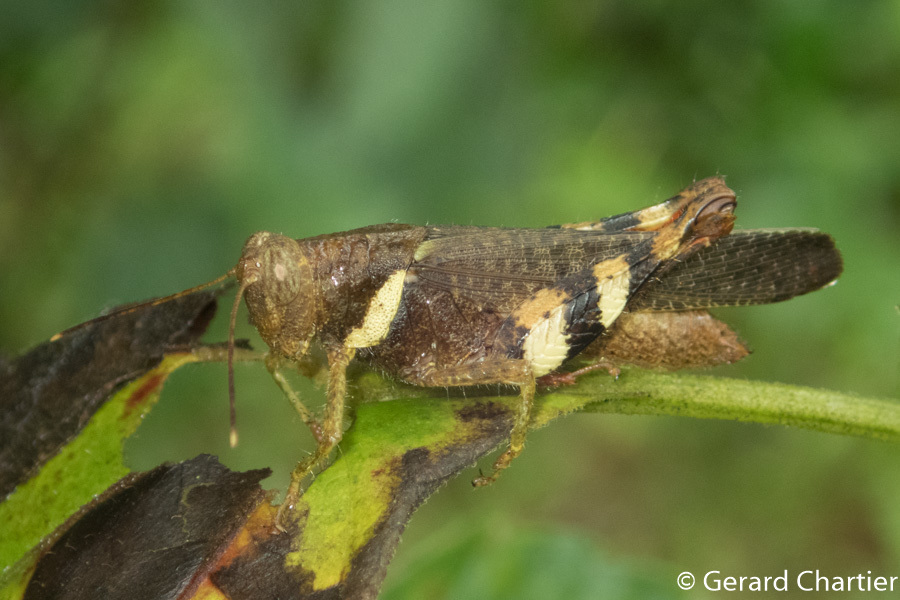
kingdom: Animalia
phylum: Arthropoda
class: Insecta
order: Orthoptera
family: Acrididae
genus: Apalacris
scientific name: Apalacris varicornis
